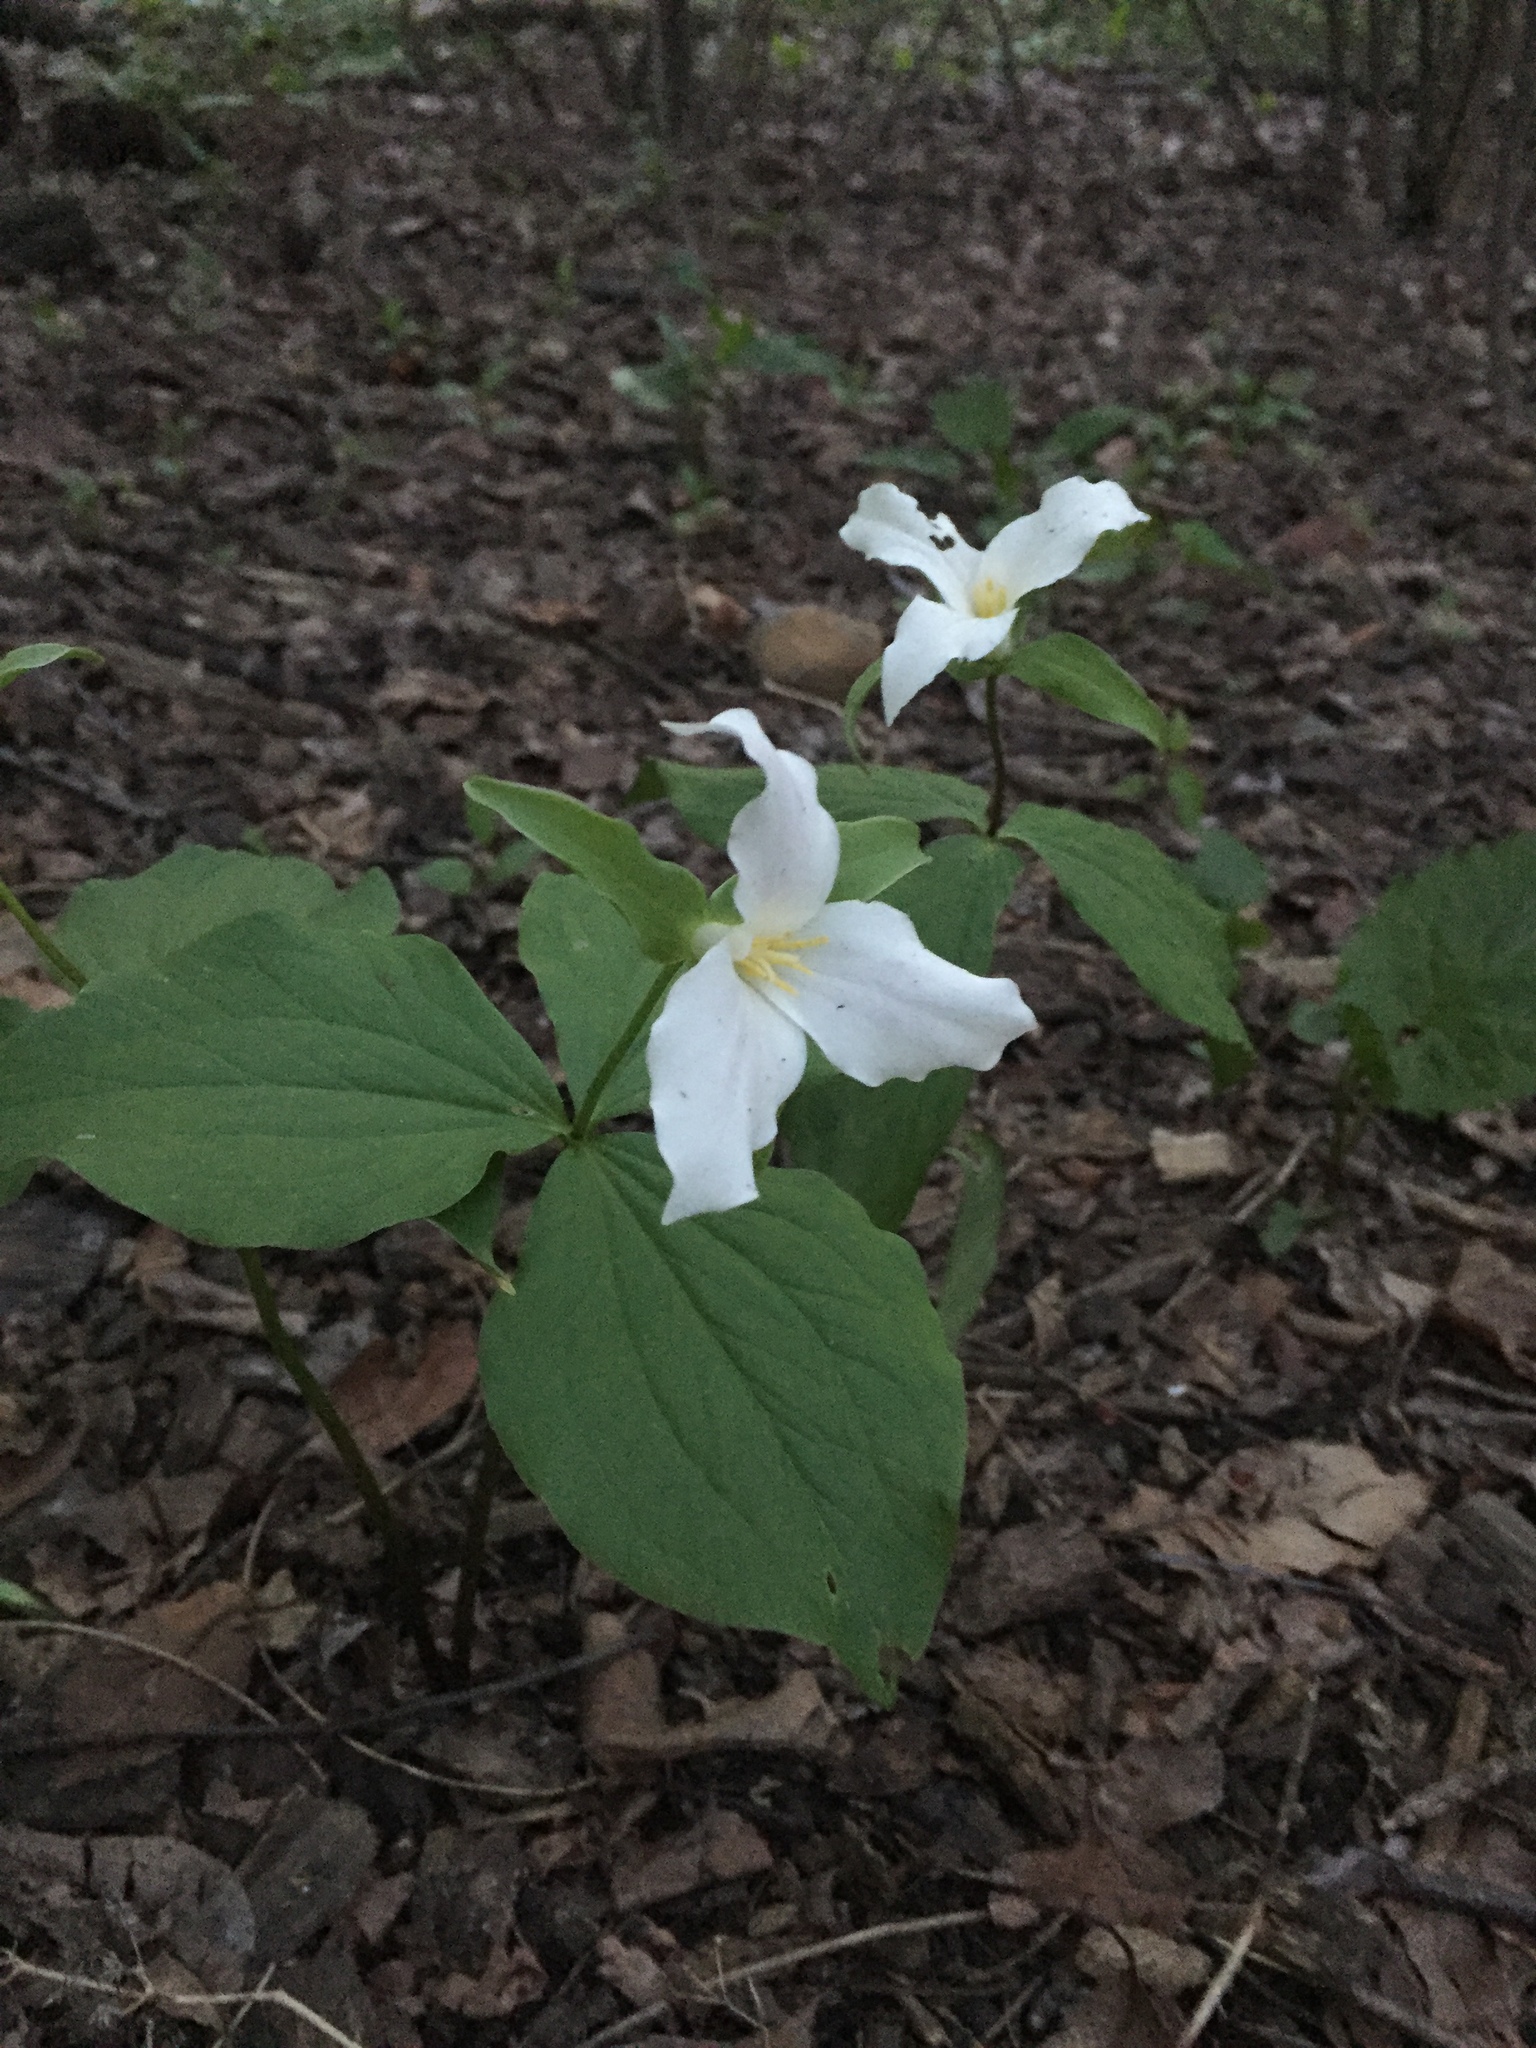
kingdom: Plantae
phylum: Tracheophyta
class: Liliopsida
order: Liliales
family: Melanthiaceae
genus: Trillium
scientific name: Trillium grandiflorum
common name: Great white trillium
